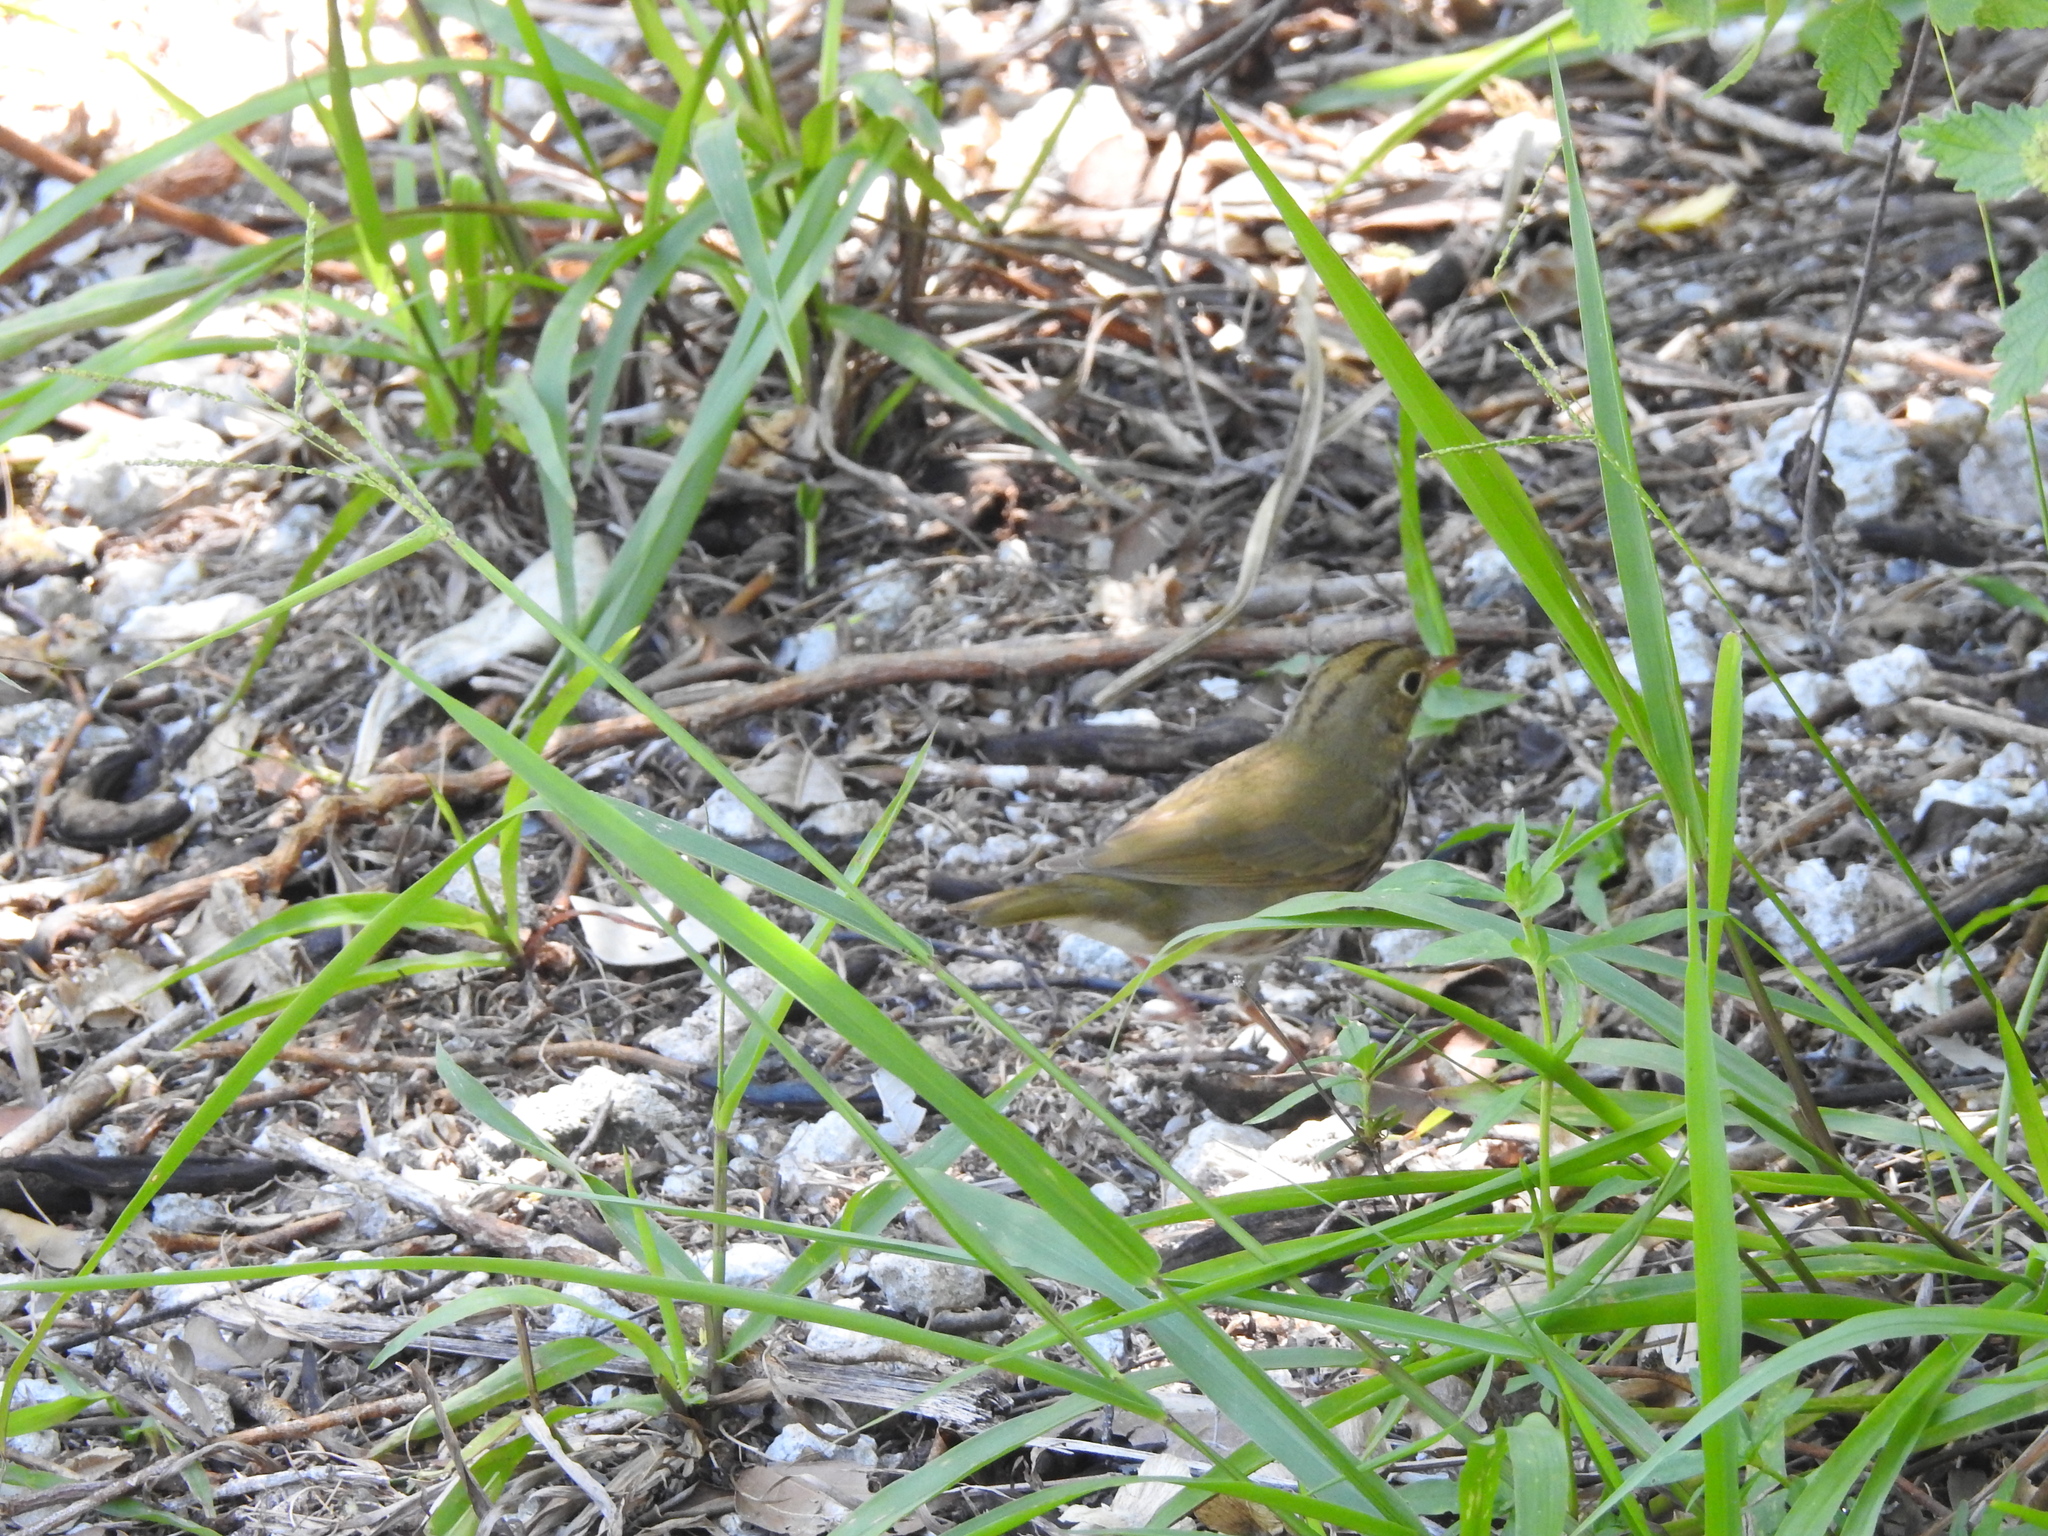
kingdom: Animalia
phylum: Chordata
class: Aves
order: Passeriformes
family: Parulidae
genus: Seiurus
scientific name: Seiurus aurocapilla
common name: Ovenbird
